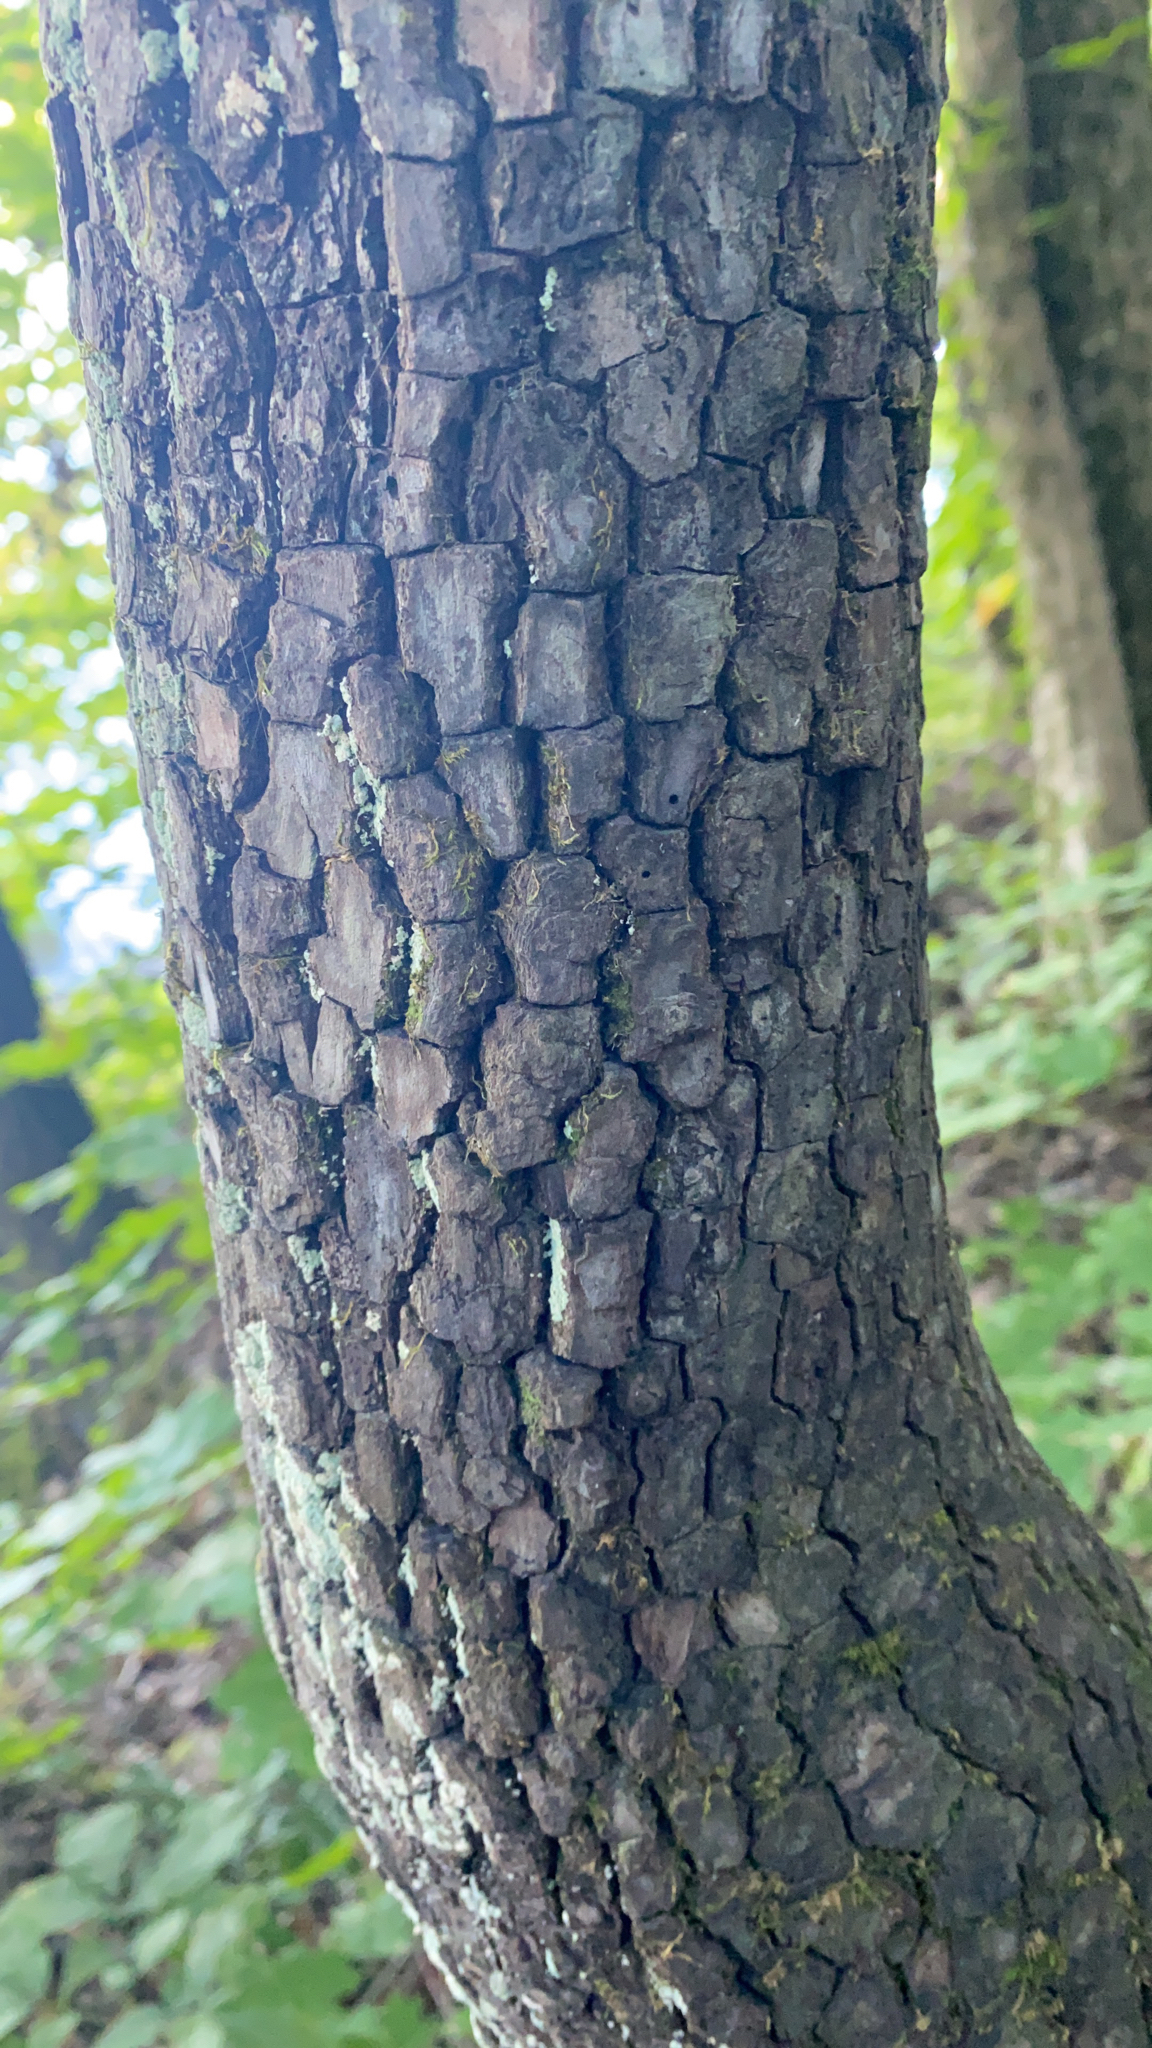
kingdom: Plantae
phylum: Tracheophyta
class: Magnoliopsida
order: Ericales
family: Ebenaceae
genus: Diospyros
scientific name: Diospyros virginiana
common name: Persimmon
